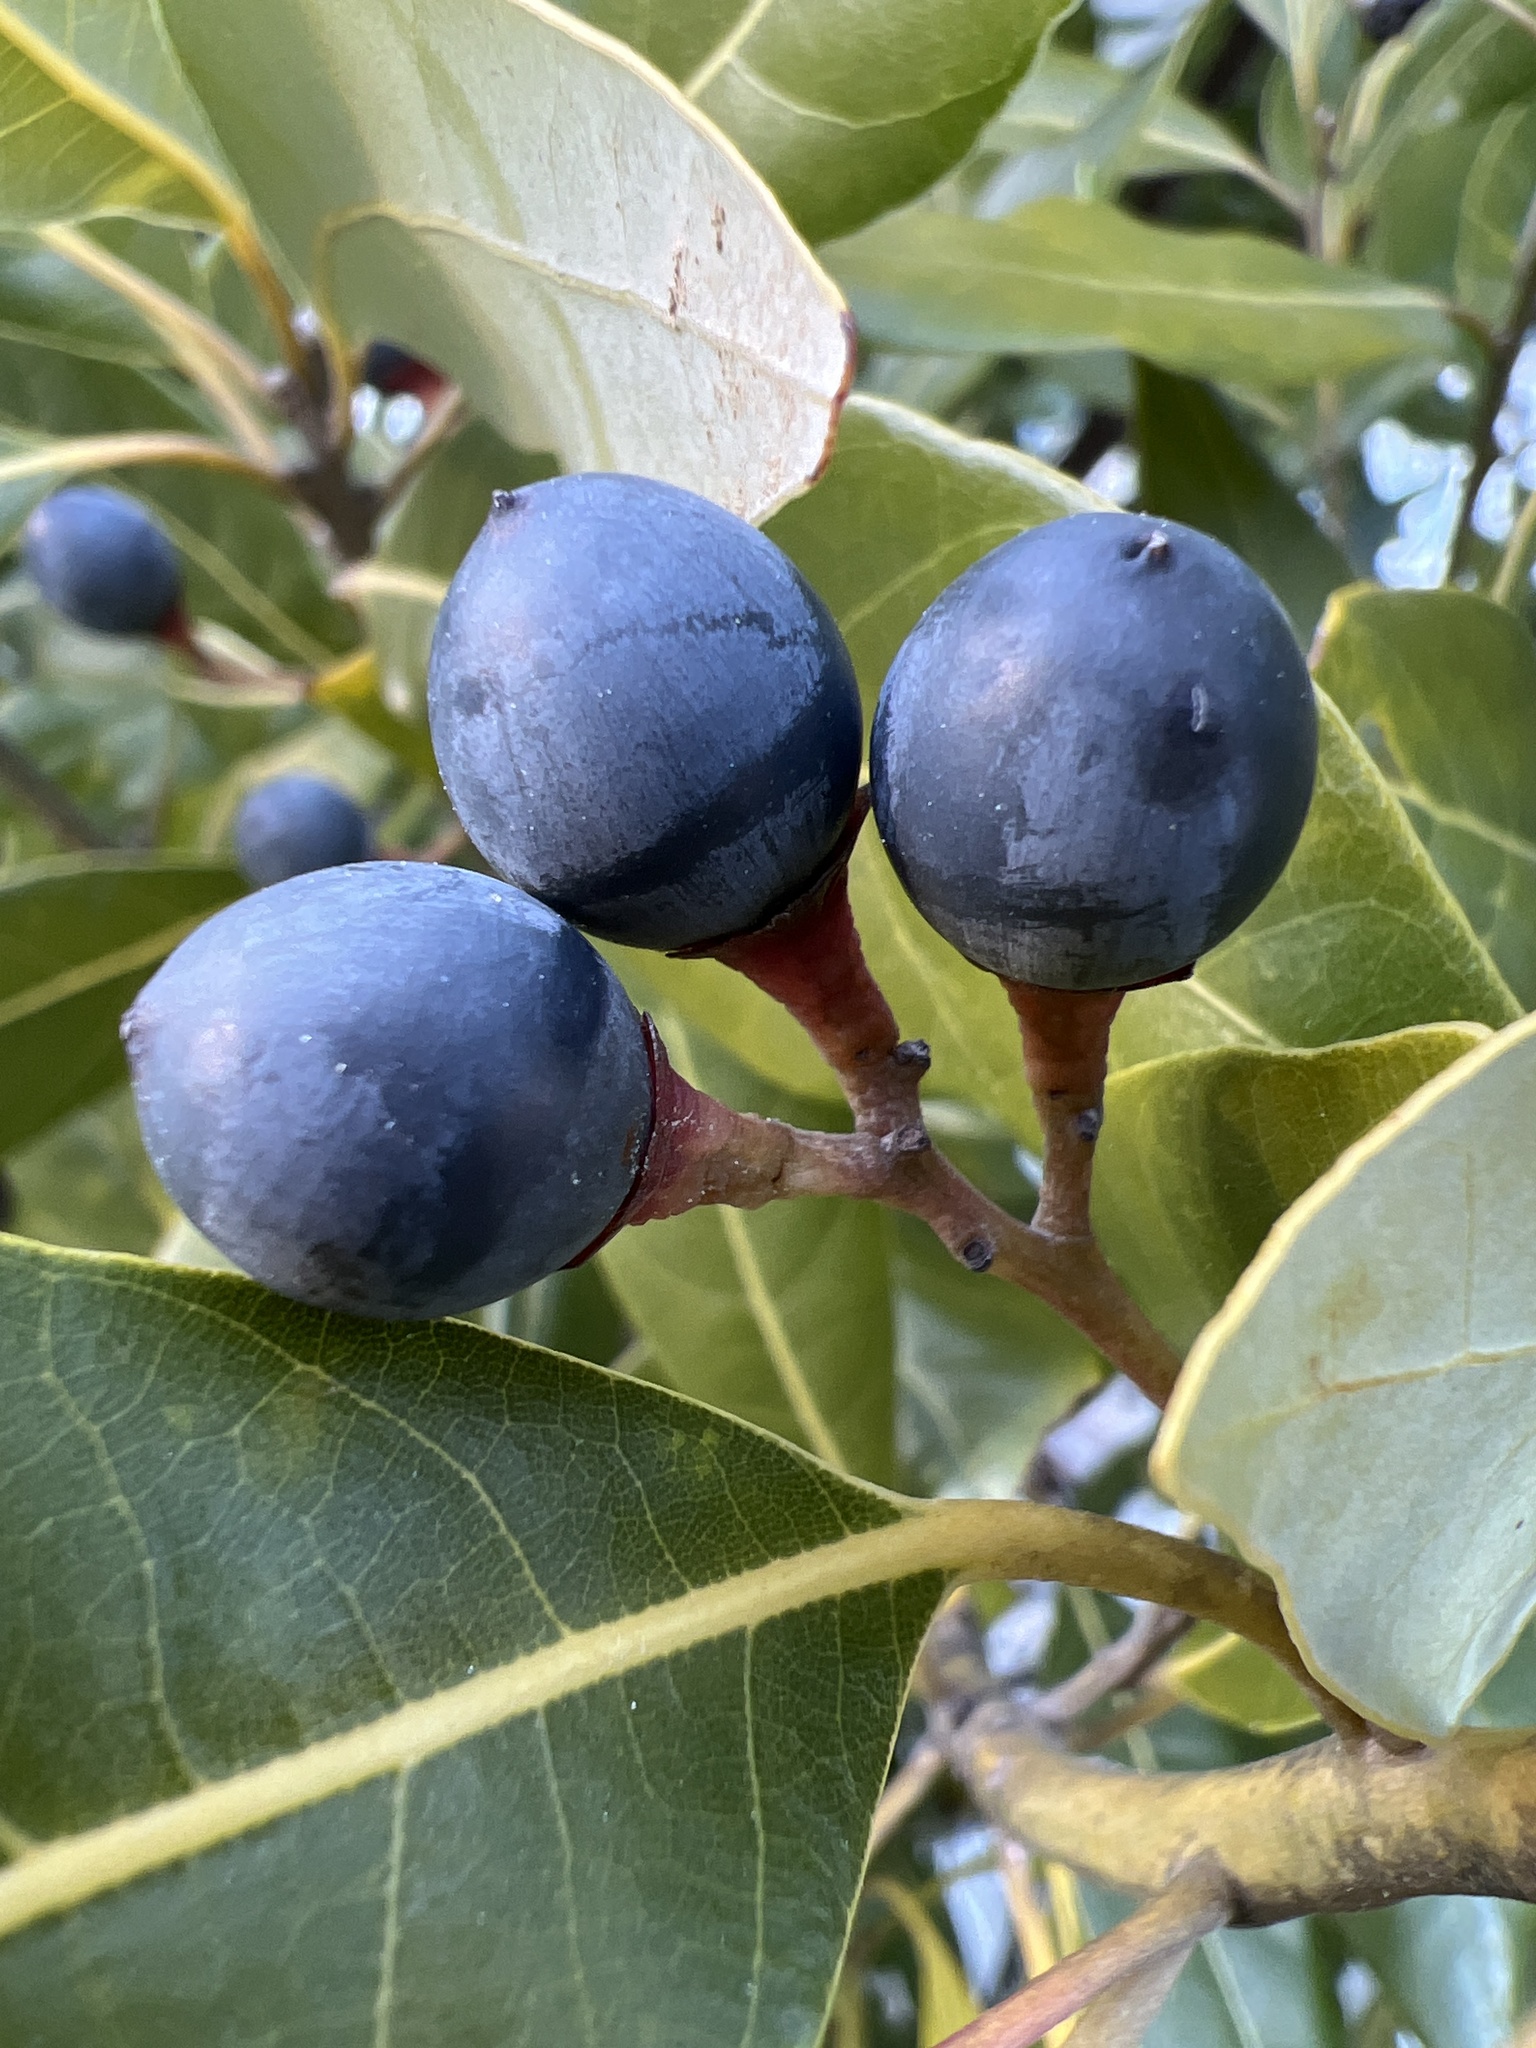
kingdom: Plantae
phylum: Tracheophyta
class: Magnoliopsida
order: Laurales
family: Lauraceae
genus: Persea
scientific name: Persea borbonia
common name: Redbay
